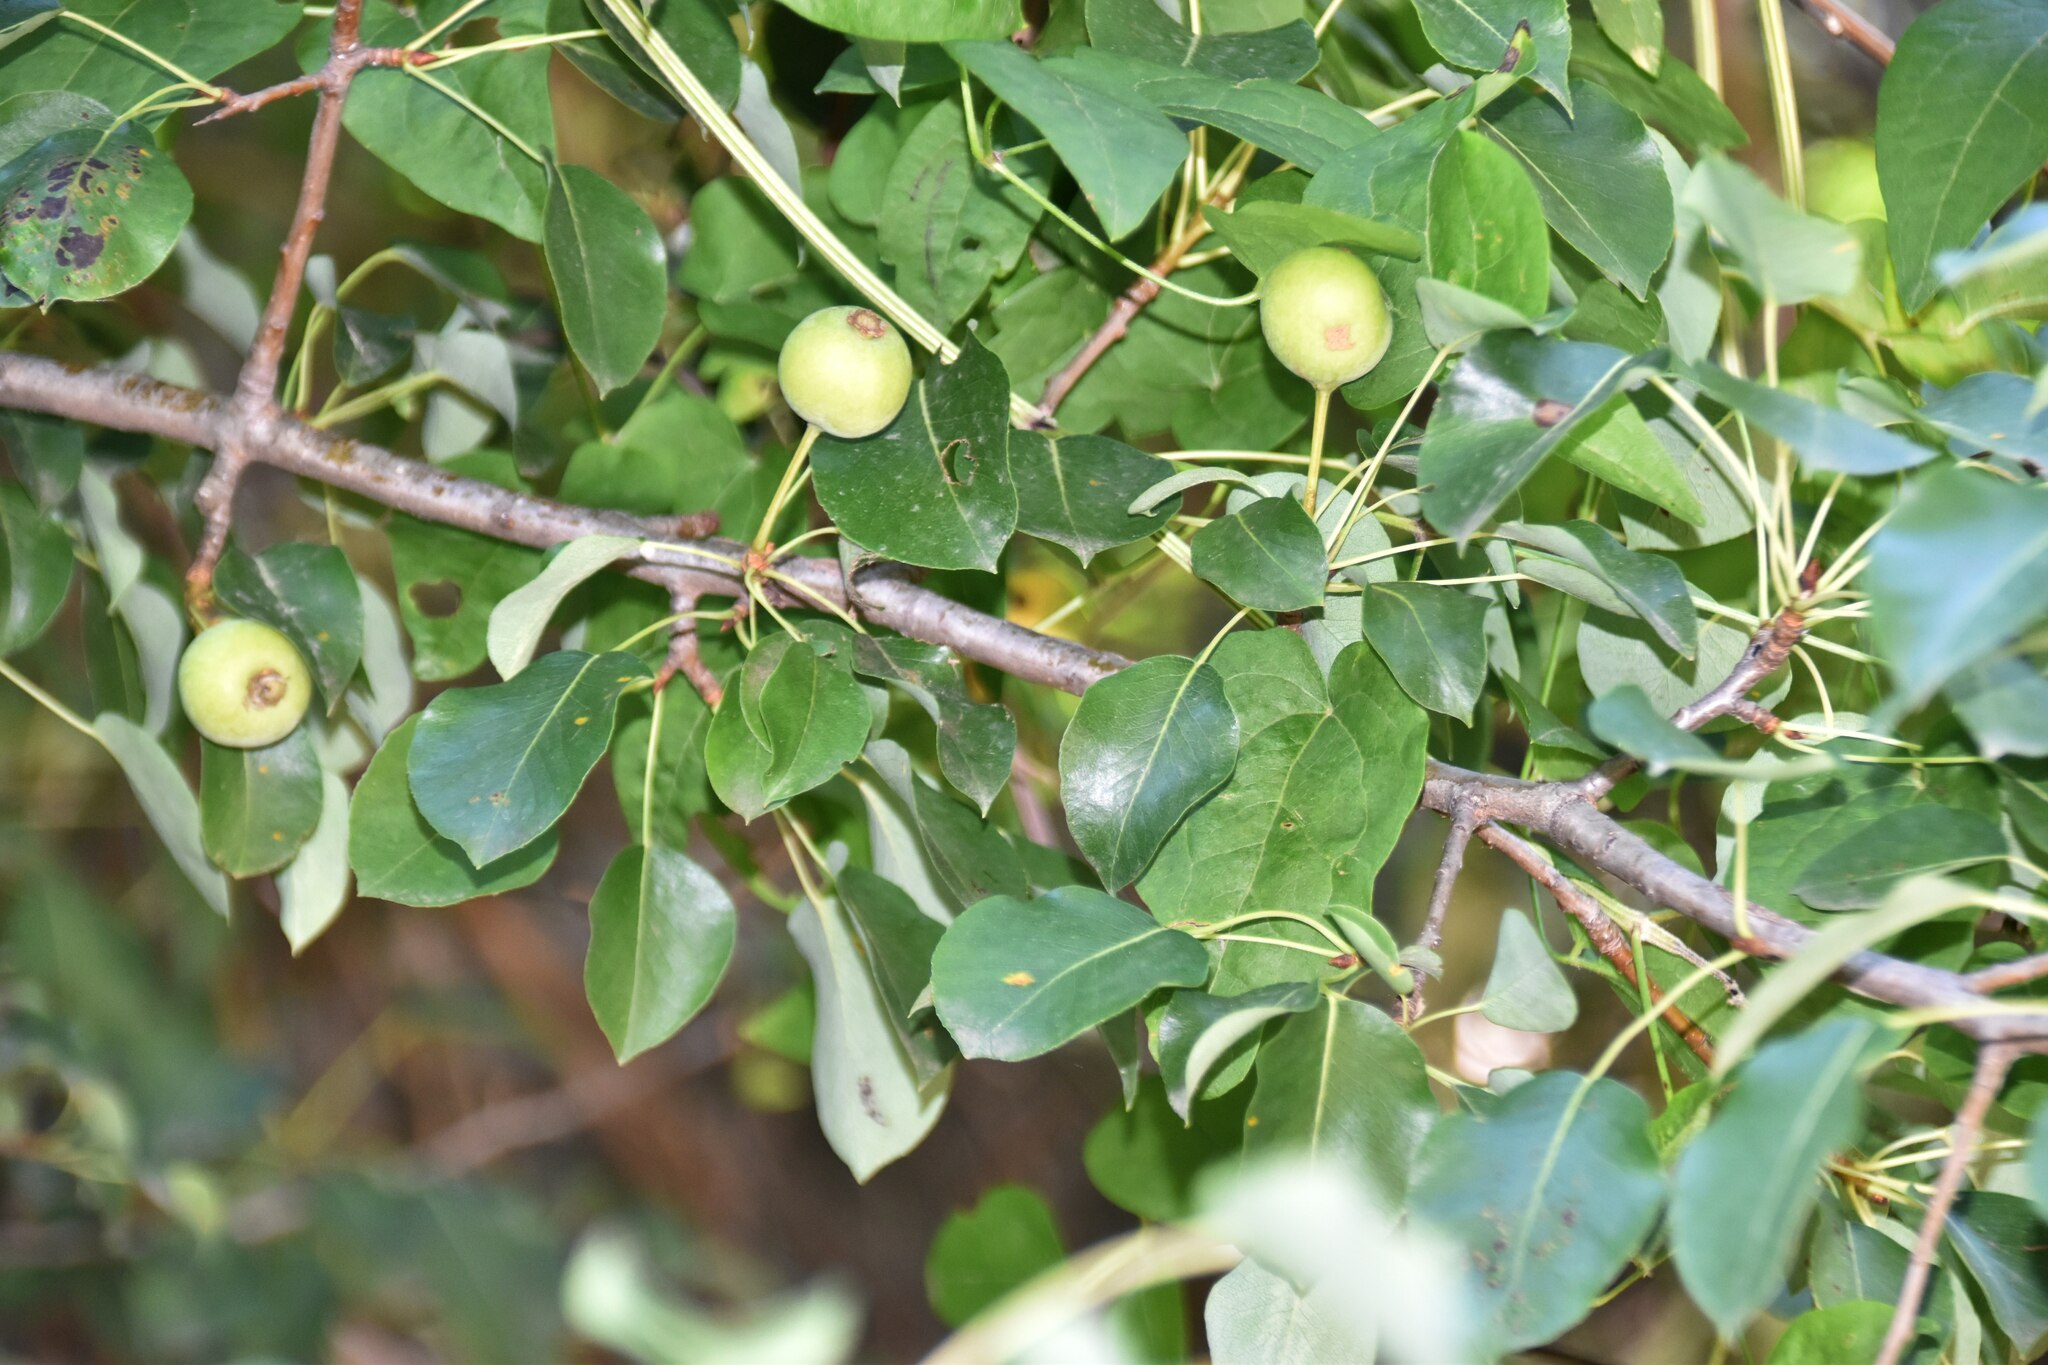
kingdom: Plantae
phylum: Tracheophyta
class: Magnoliopsida
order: Rosales
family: Rosaceae
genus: Pyrus
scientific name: Pyrus
